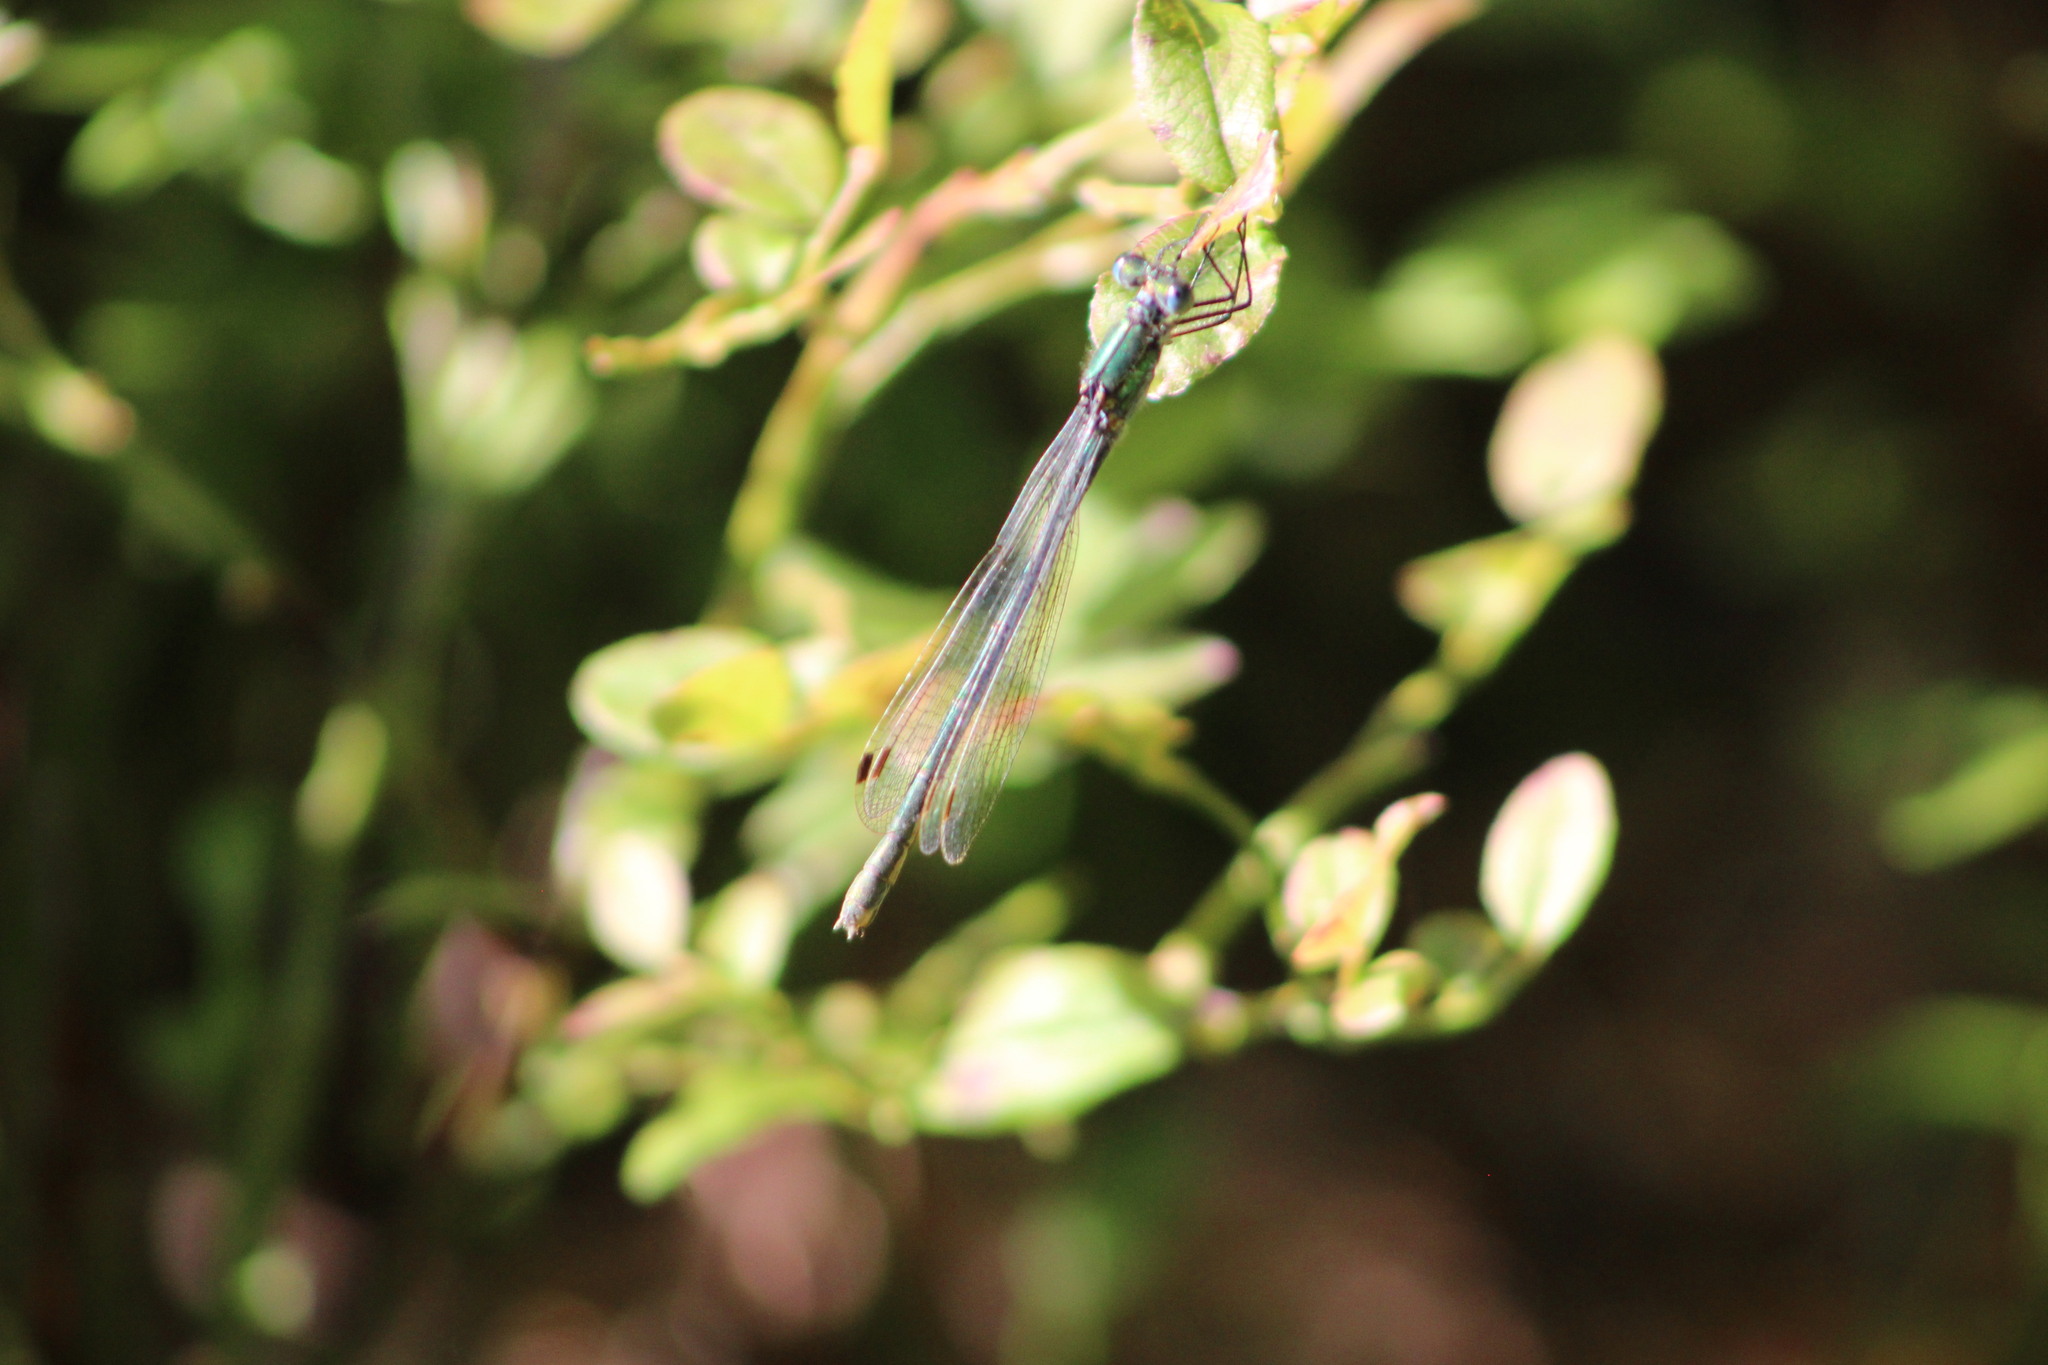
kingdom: Animalia
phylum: Arthropoda
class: Insecta
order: Odonata
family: Lestidae
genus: Lestes
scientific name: Lestes sponsa
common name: Common spreadwing
